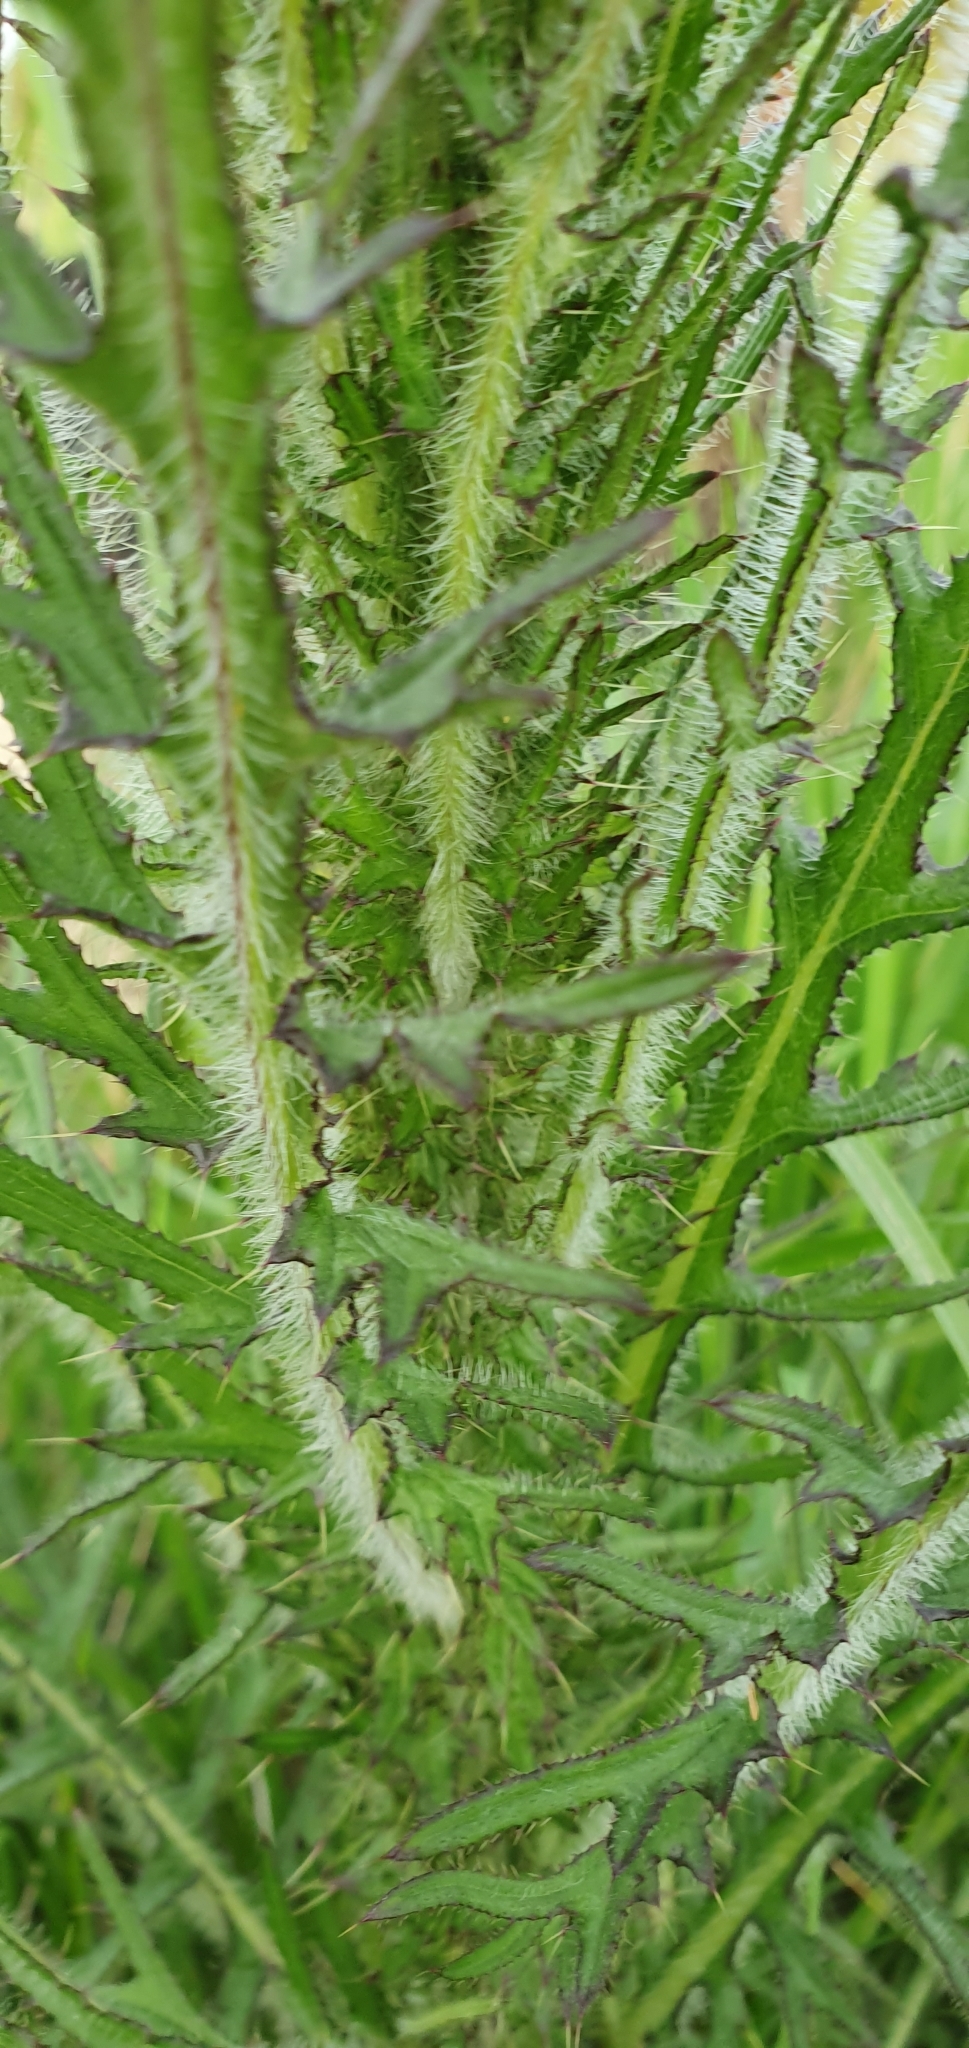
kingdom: Plantae
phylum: Tracheophyta
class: Magnoliopsida
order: Asterales
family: Asteraceae
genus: Cirsium
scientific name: Cirsium palustre
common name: Marsh thistle
